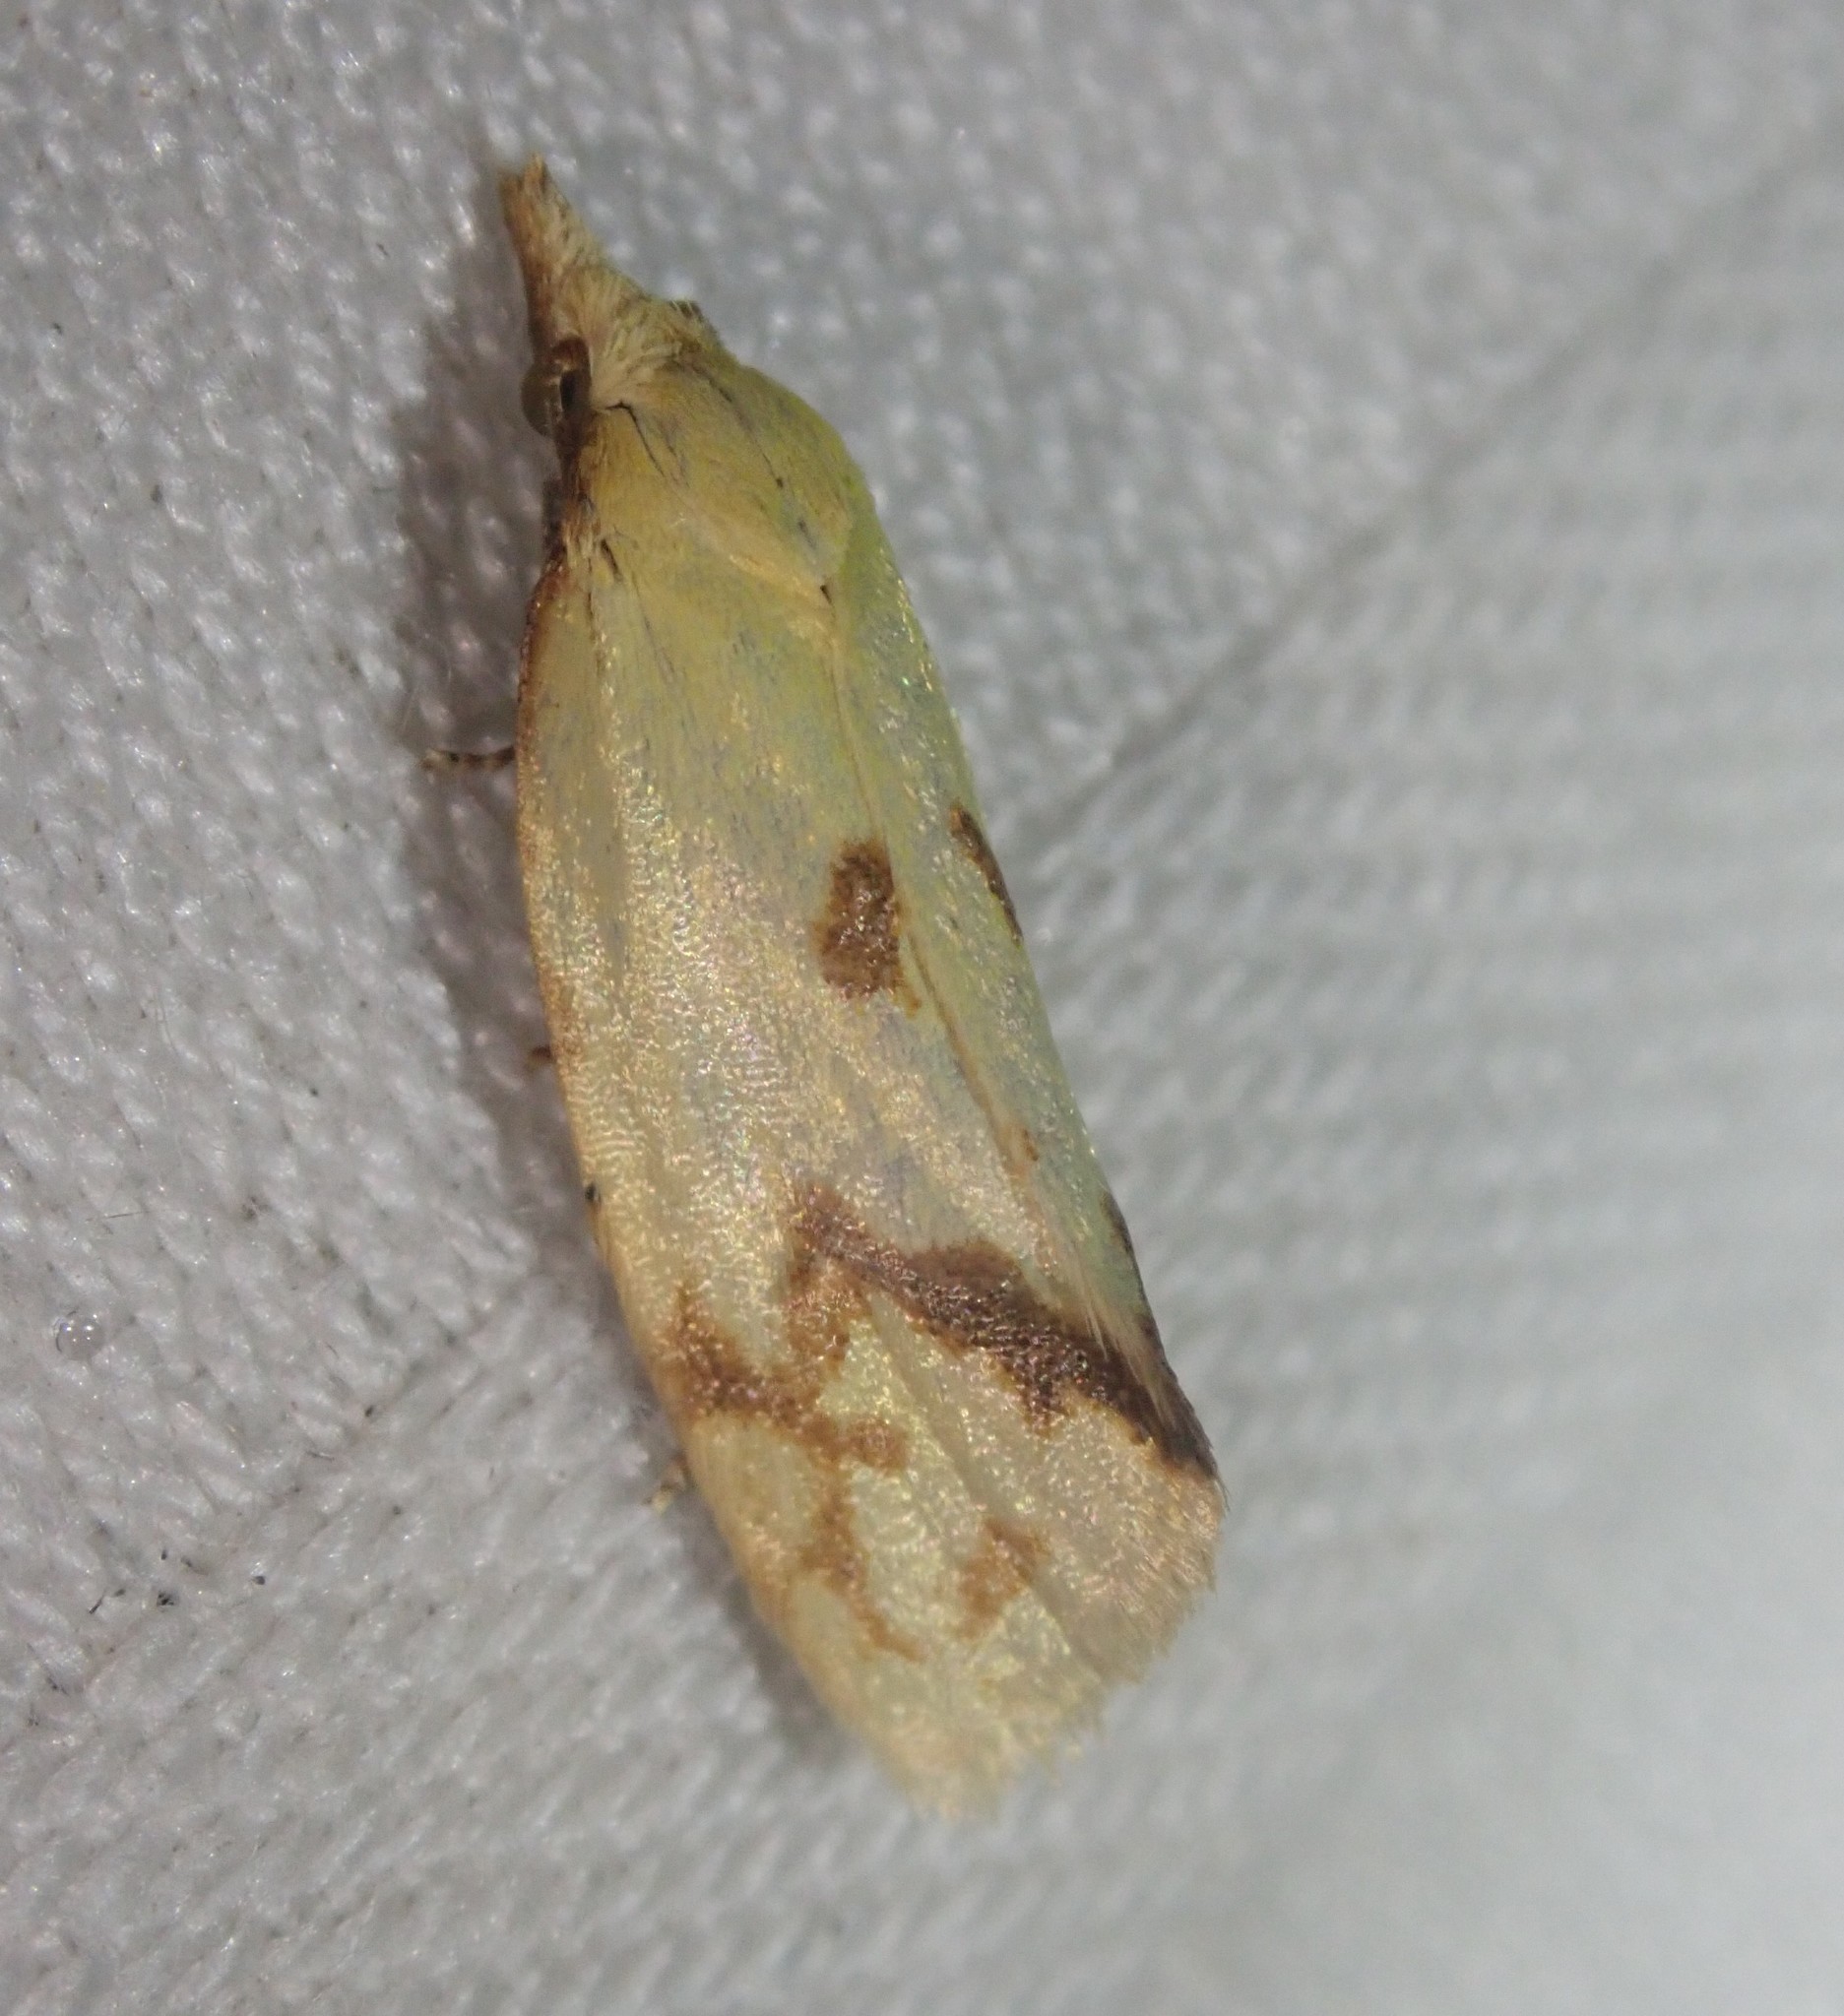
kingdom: Animalia
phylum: Arthropoda
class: Insecta
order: Lepidoptera
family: Tortricidae
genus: Agapeta
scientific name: Agapeta hamana
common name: Common yellow conch
